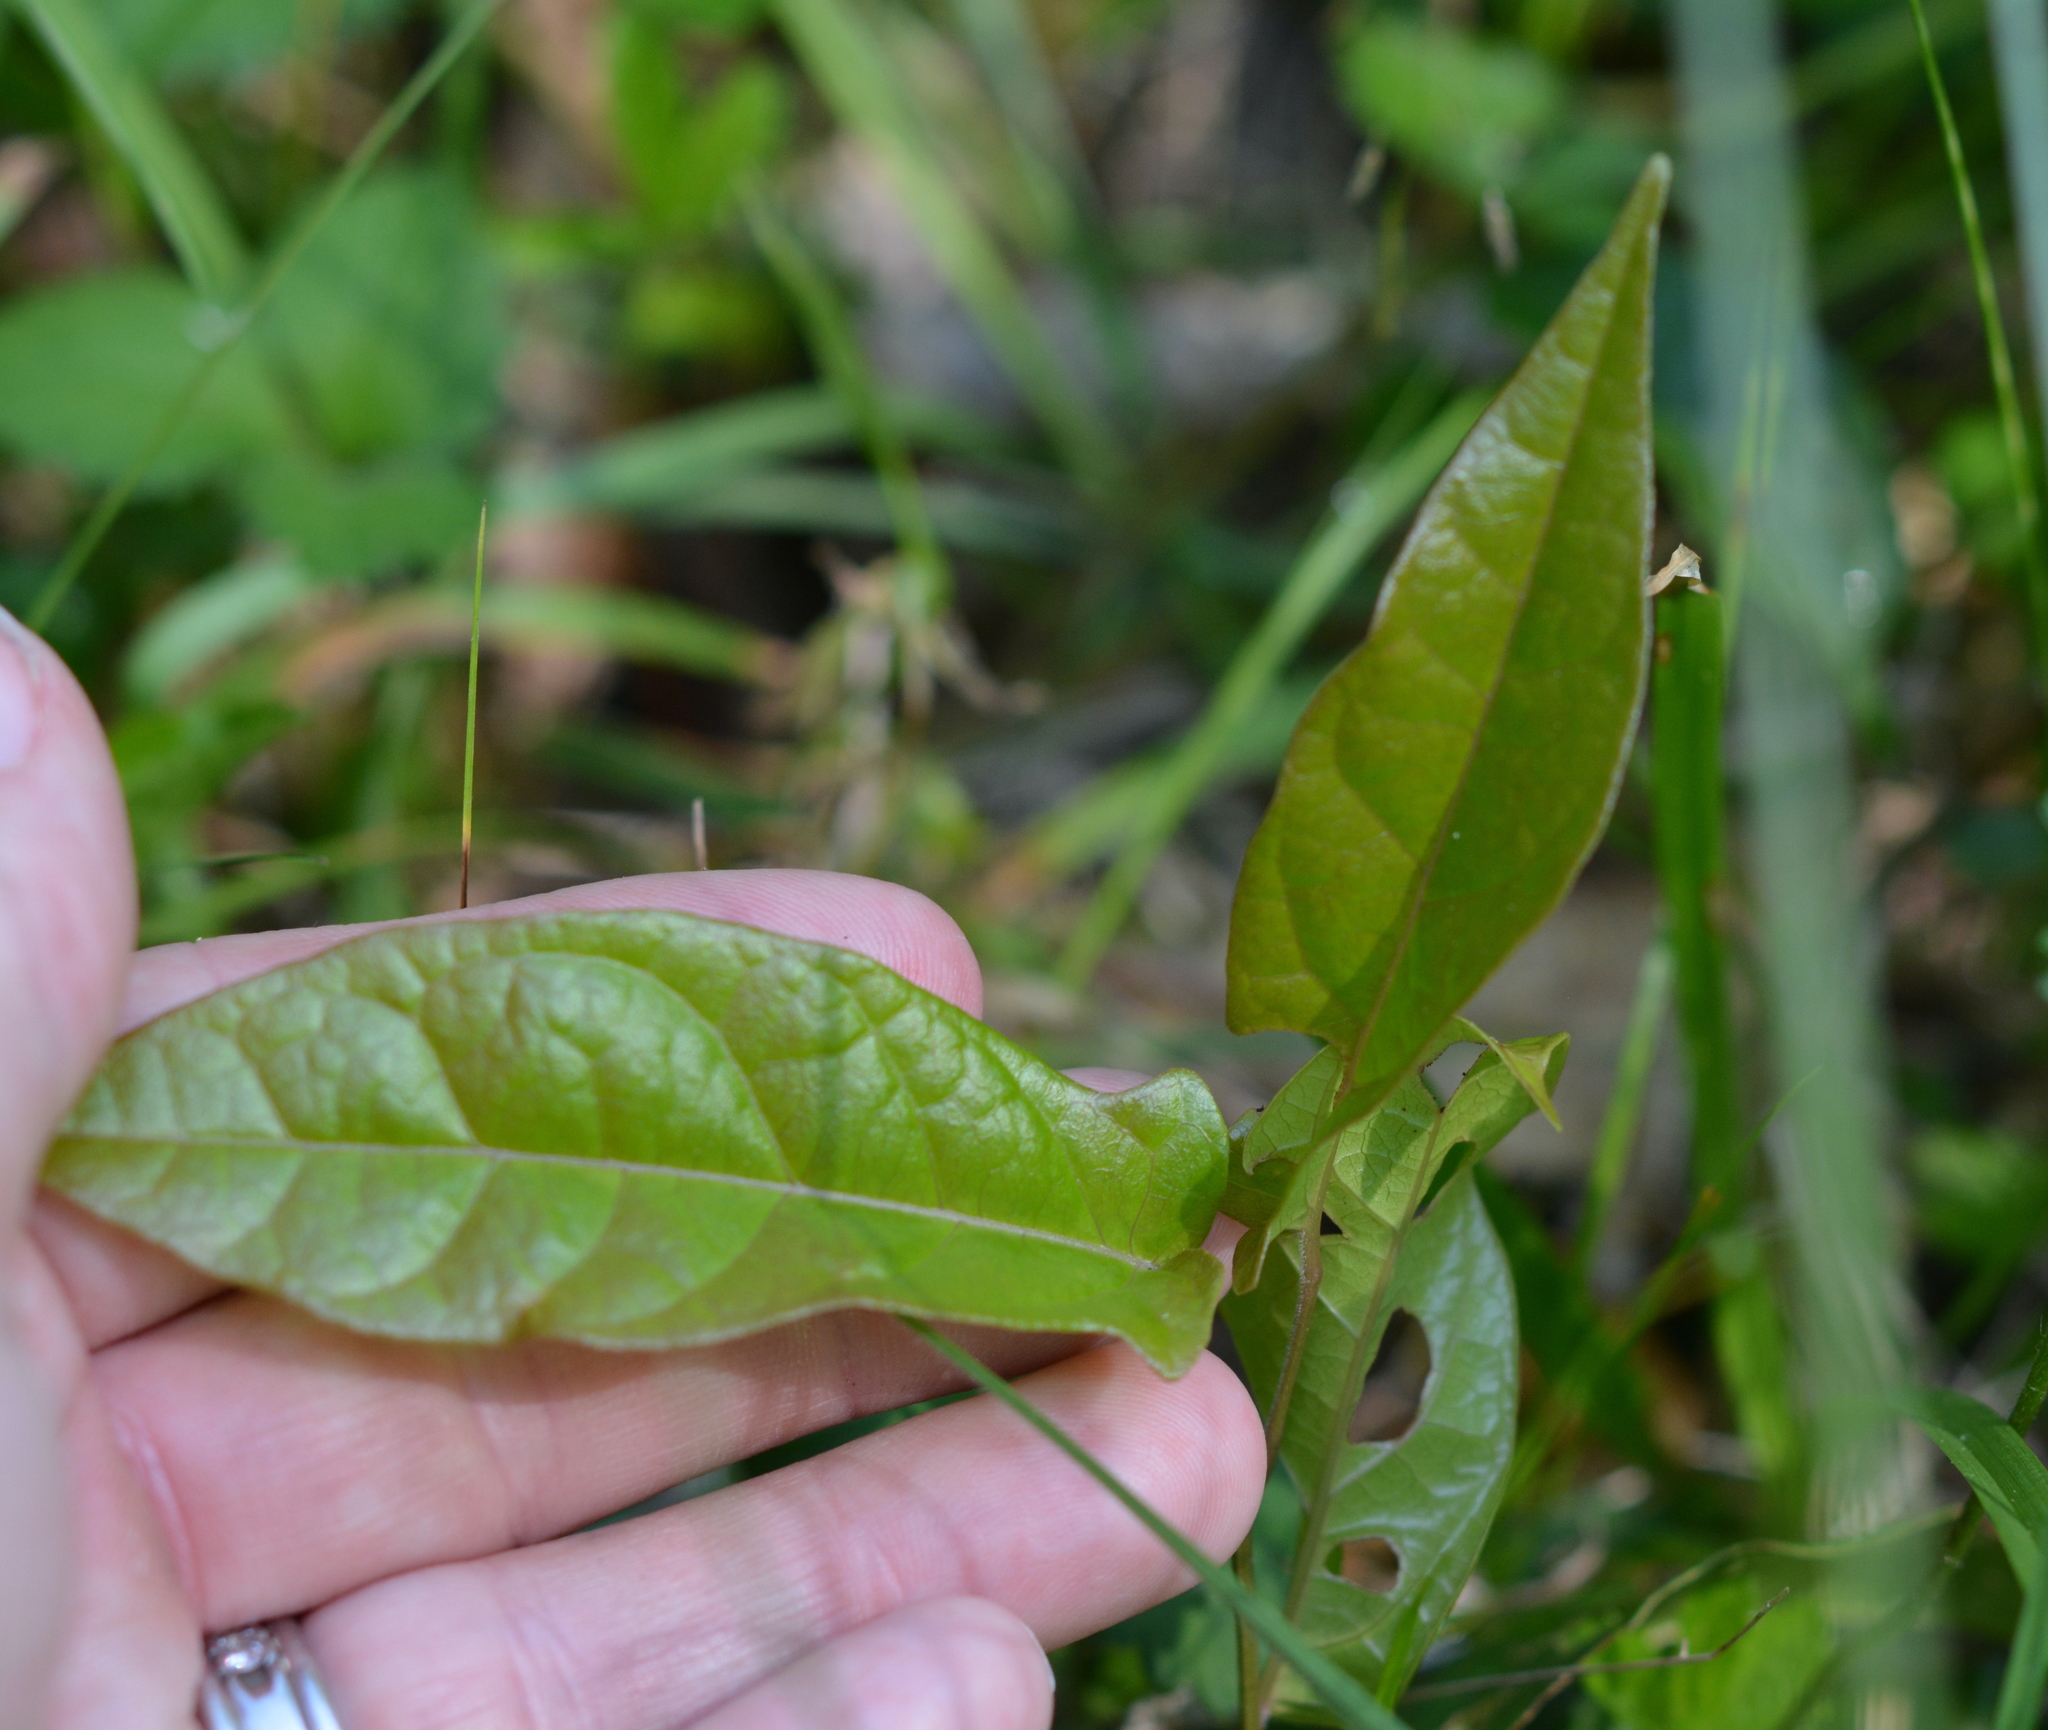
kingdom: Plantae
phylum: Tracheophyta
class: Magnoliopsida
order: Lamiales
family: Bignoniaceae
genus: Bignonia
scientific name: Bignonia capreolata
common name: Crossvine
